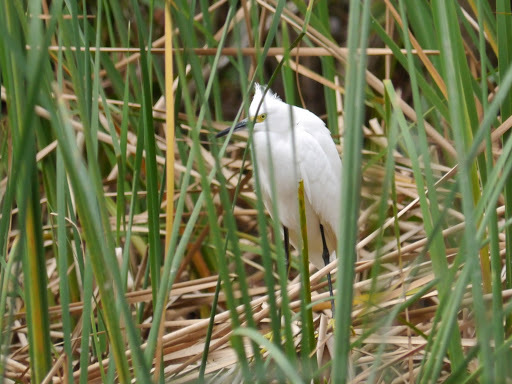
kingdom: Animalia
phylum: Chordata
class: Aves
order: Pelecaniformes
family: Ardeidae
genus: Egretta
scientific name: Egretta thula
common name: Snowy egret
